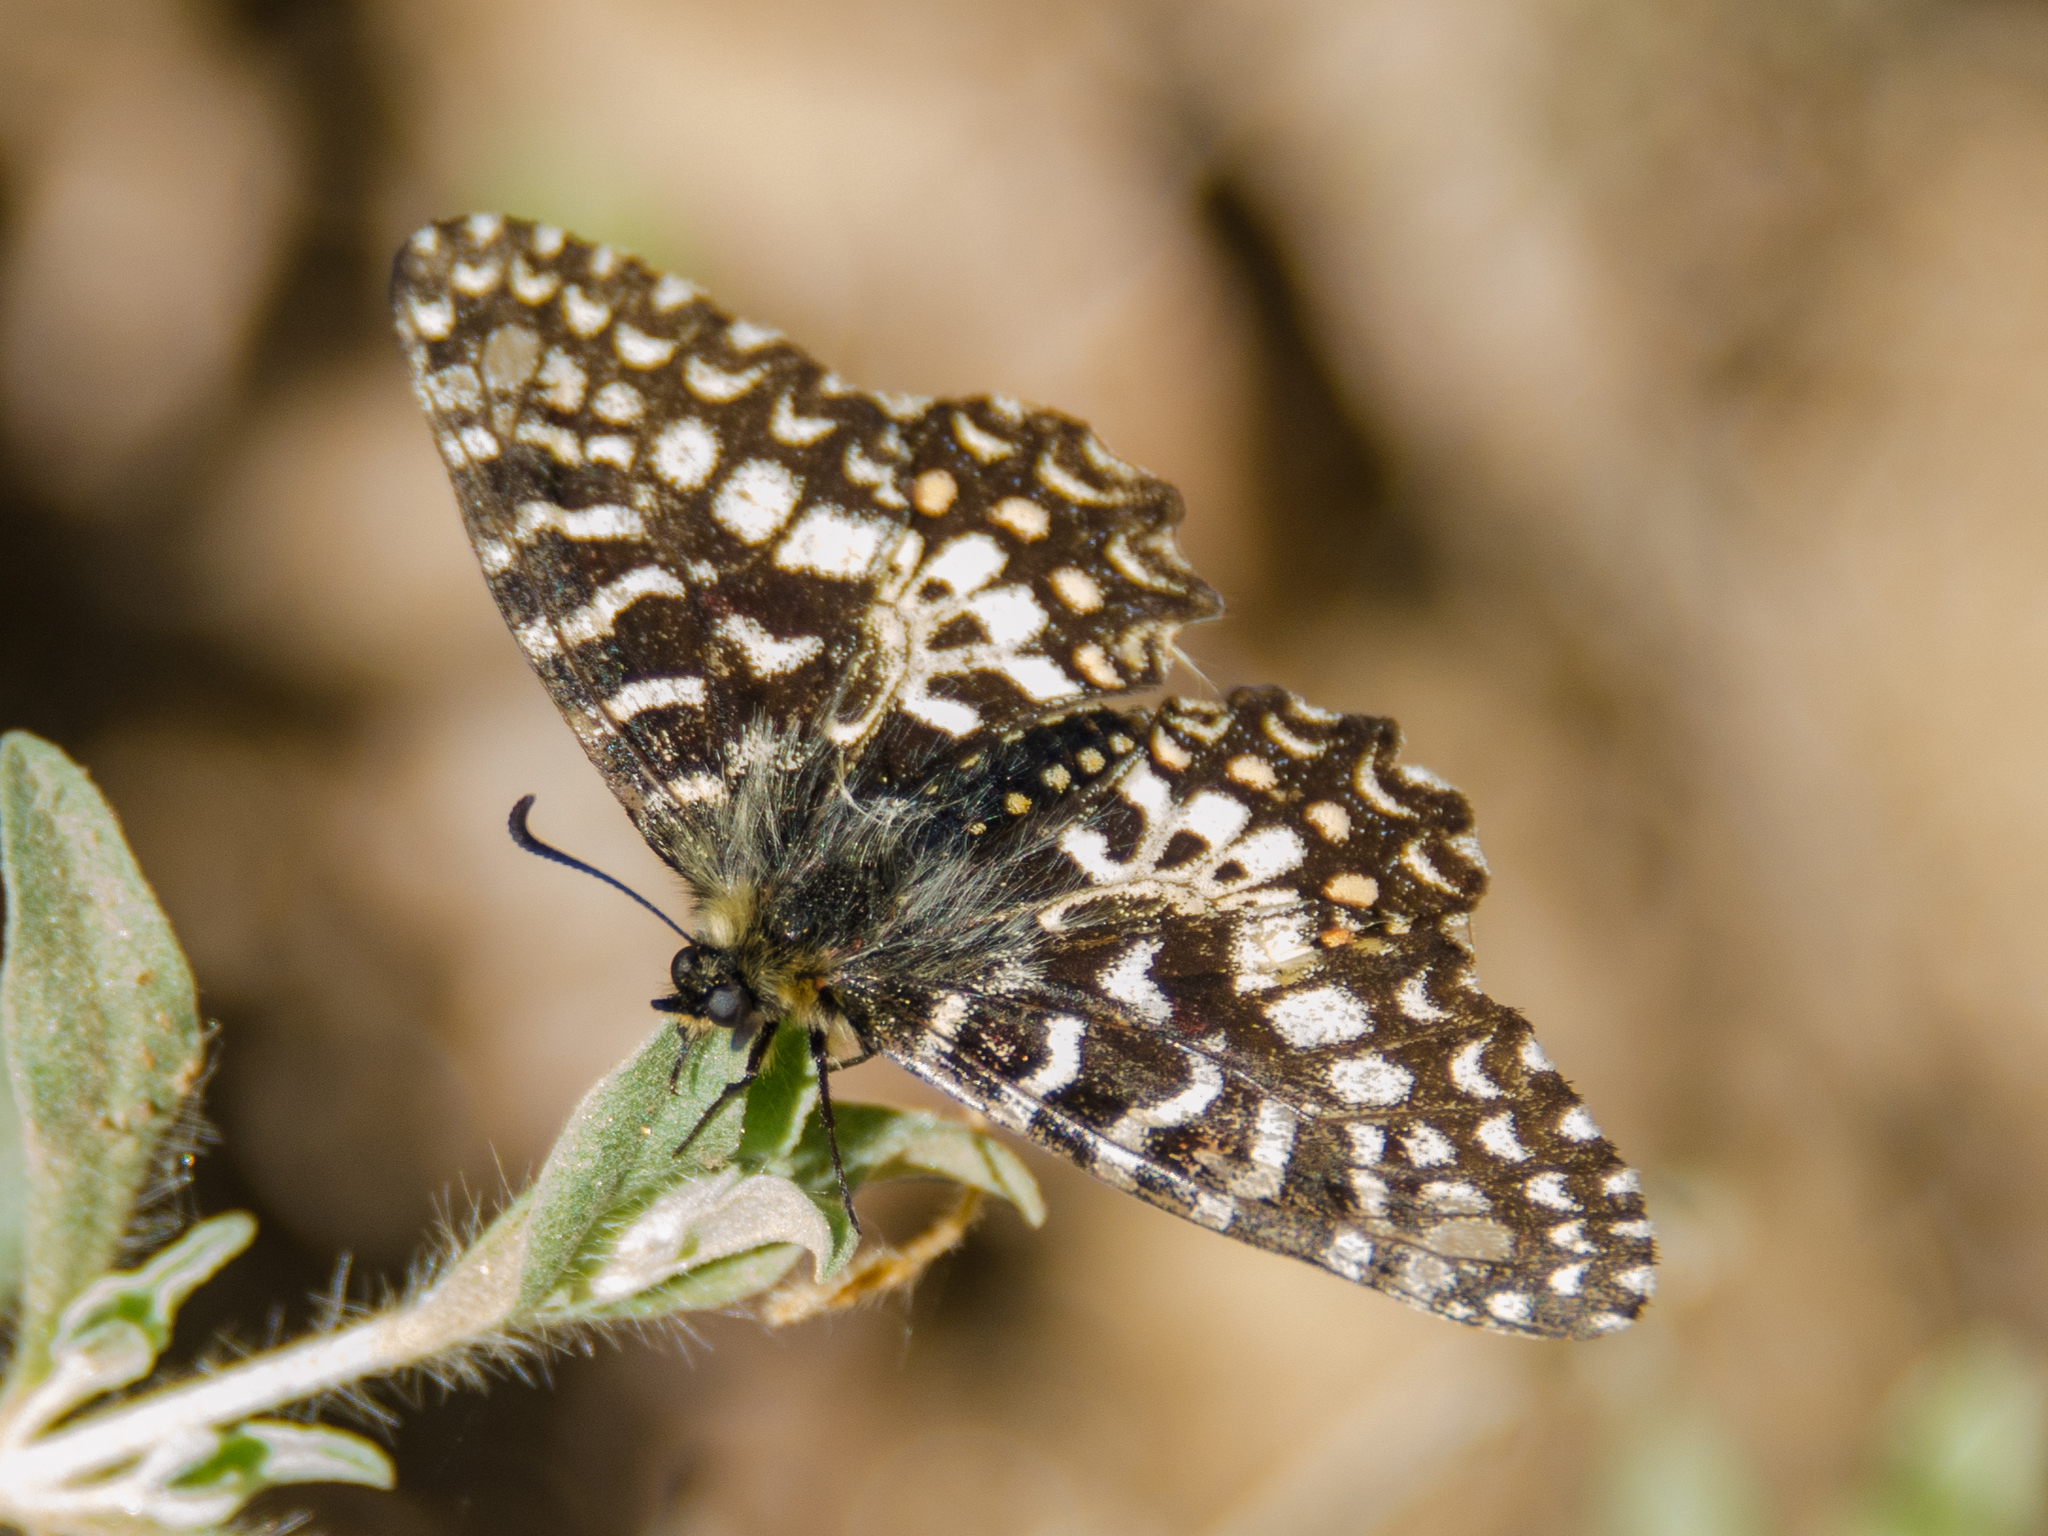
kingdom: Animalia
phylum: Arthropoda
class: Insecta
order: Lepidoptera
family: Papilionidae
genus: Zerynthia
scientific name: Zerynthia rumina
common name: Spanish festoon
